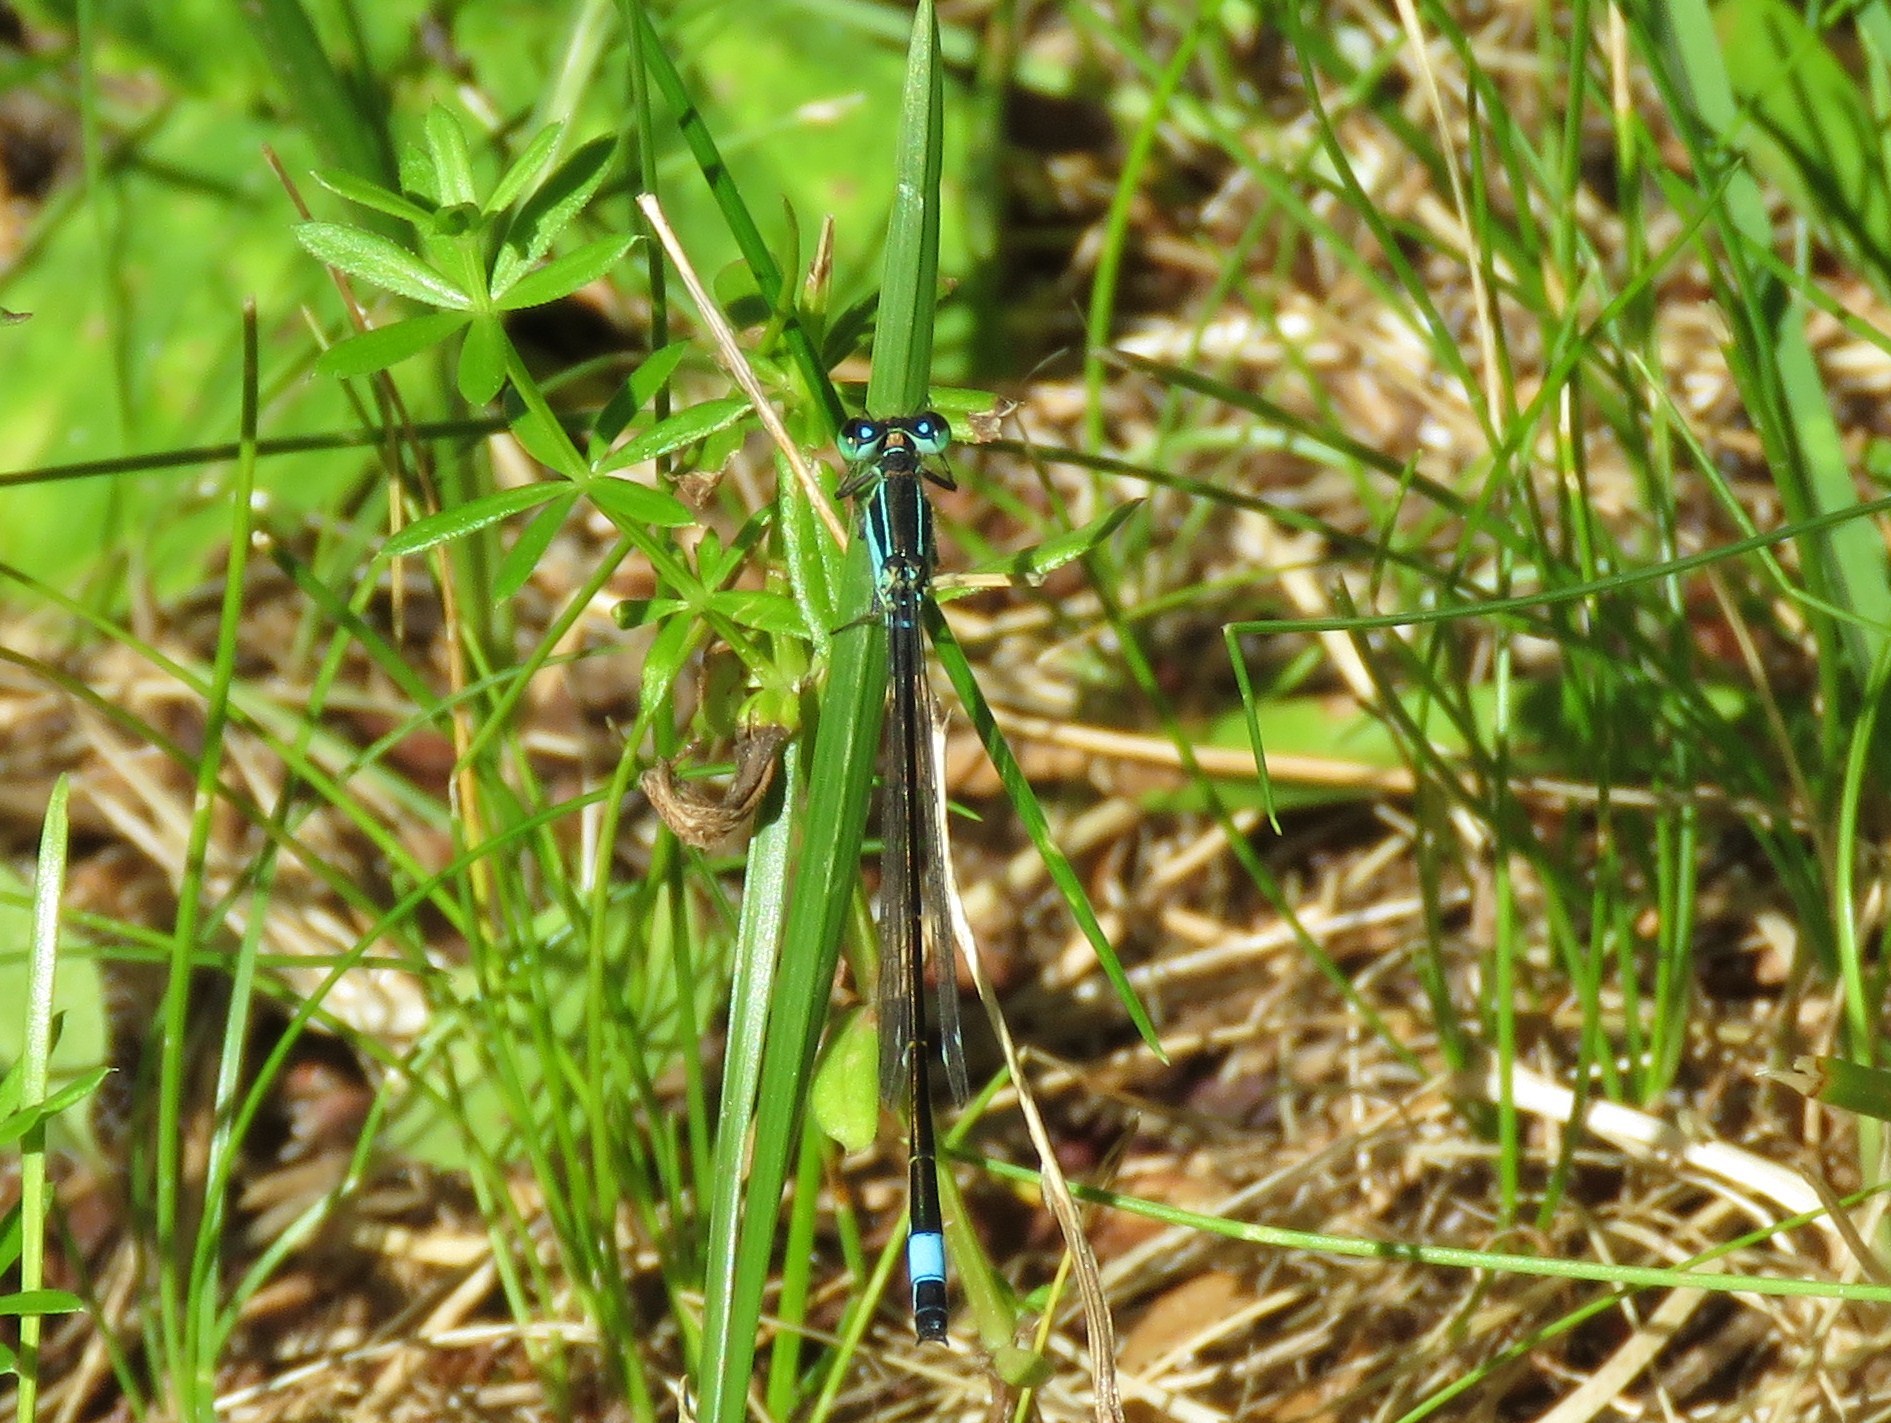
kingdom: Animalia
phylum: Arthropoda
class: Insecta
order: Odonata
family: Coenagrionidae
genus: Ischnura
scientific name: Ischnura elegans
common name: Blue-tailed damselfly
